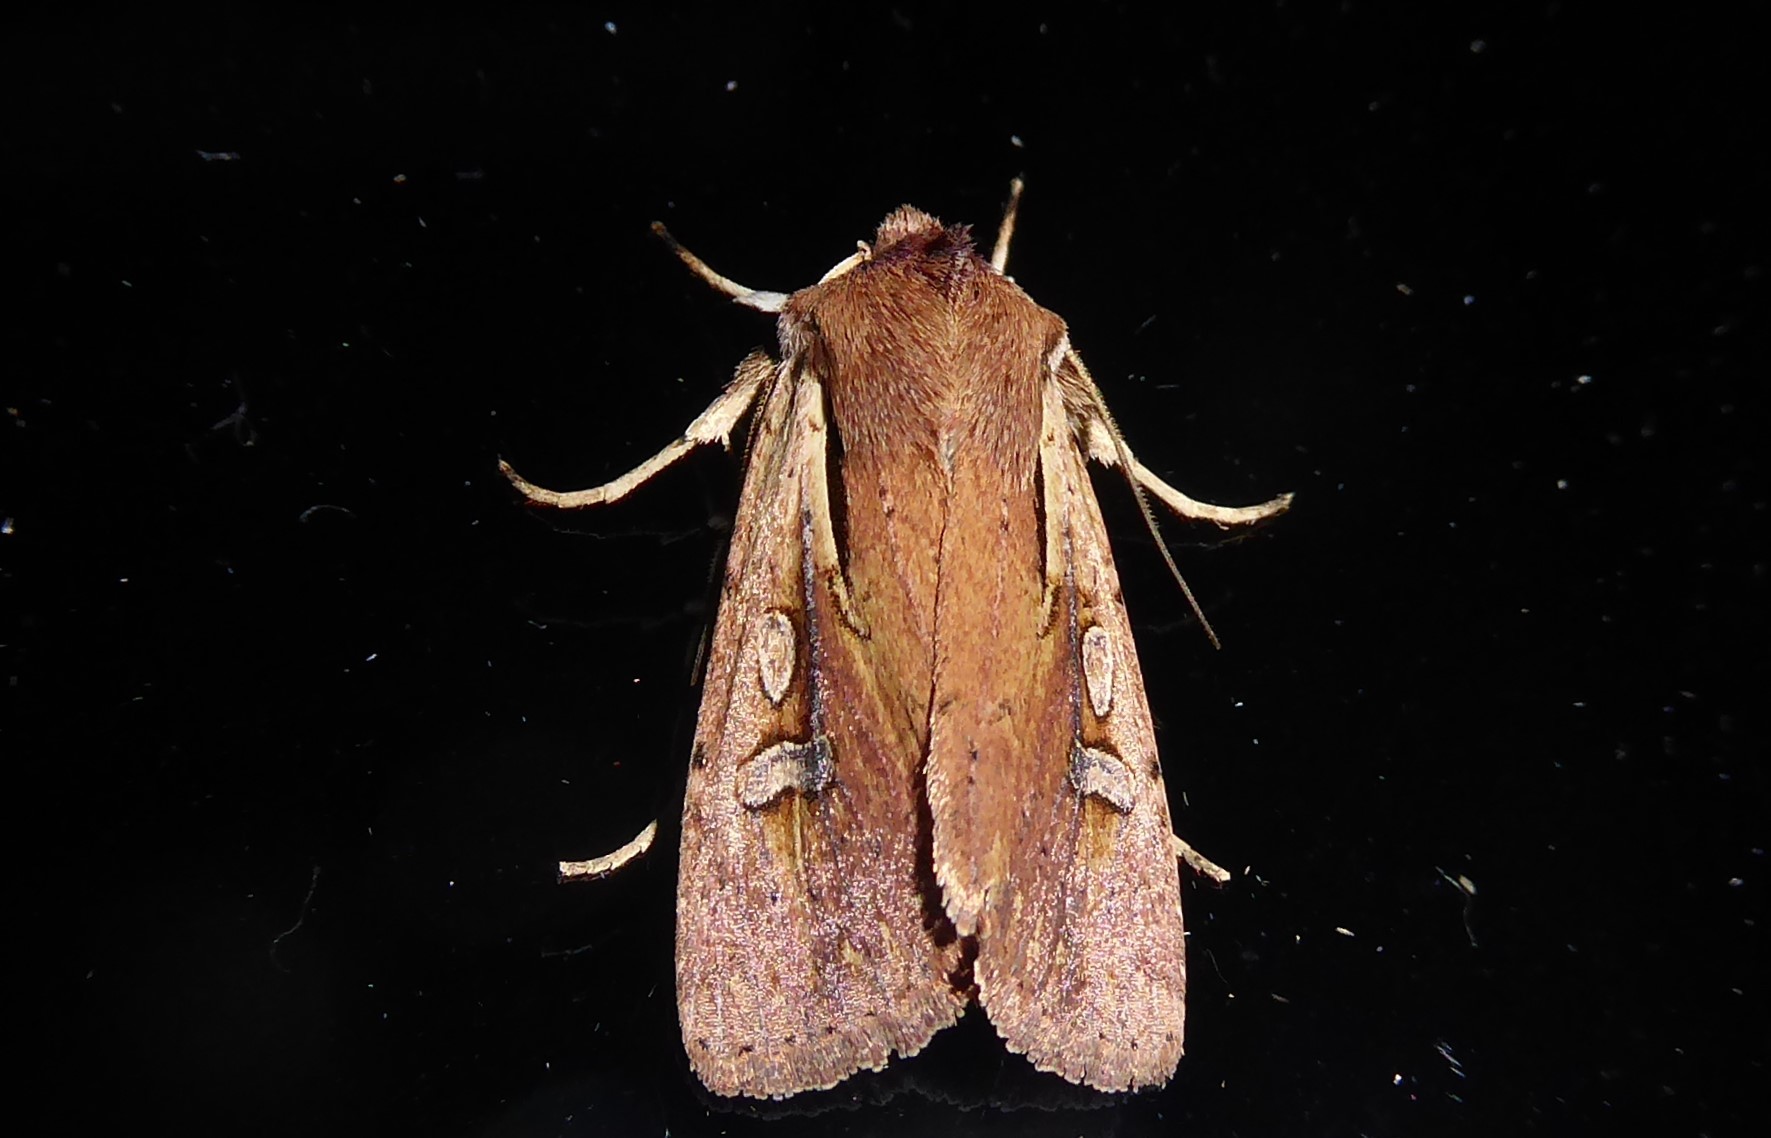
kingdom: Animalia
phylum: Arthropoda
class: Insecta
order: Lepidoptera
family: Noctuidae
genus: Ichneutica
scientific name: Ichneutica atristriga
